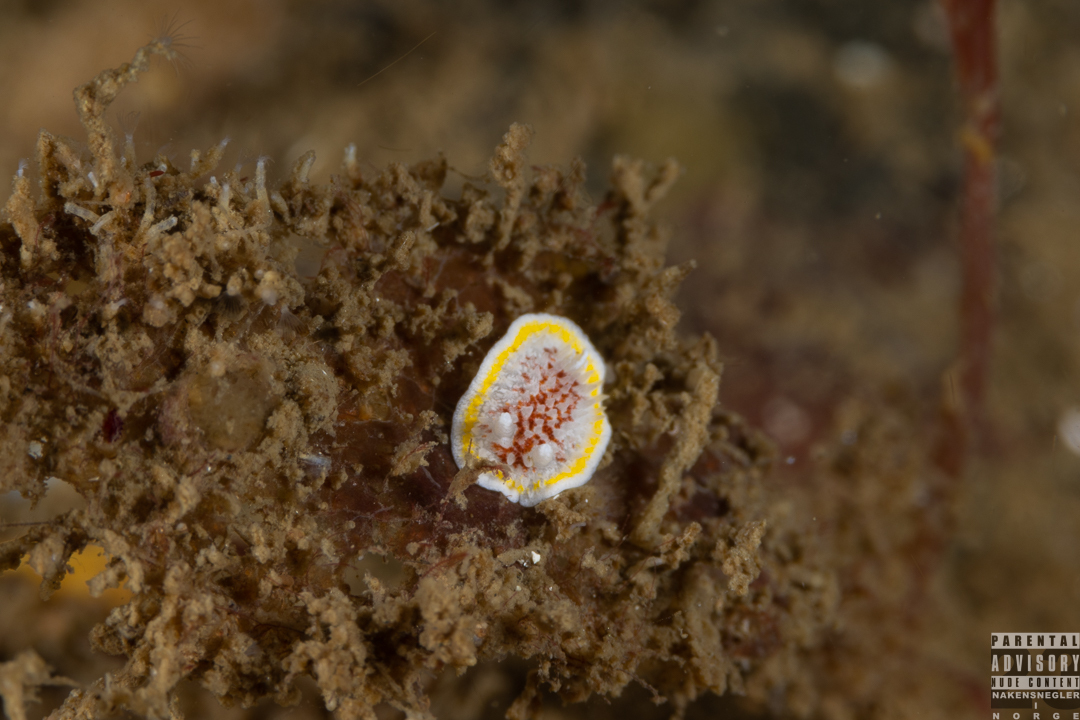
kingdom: Animalia
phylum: Mollusca
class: Gastropoda
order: Nudibranchia
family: Calycidorididae
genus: Diaphorodoris
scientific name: Diaphorodoris luteocincta
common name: Fried egg nudibranch
